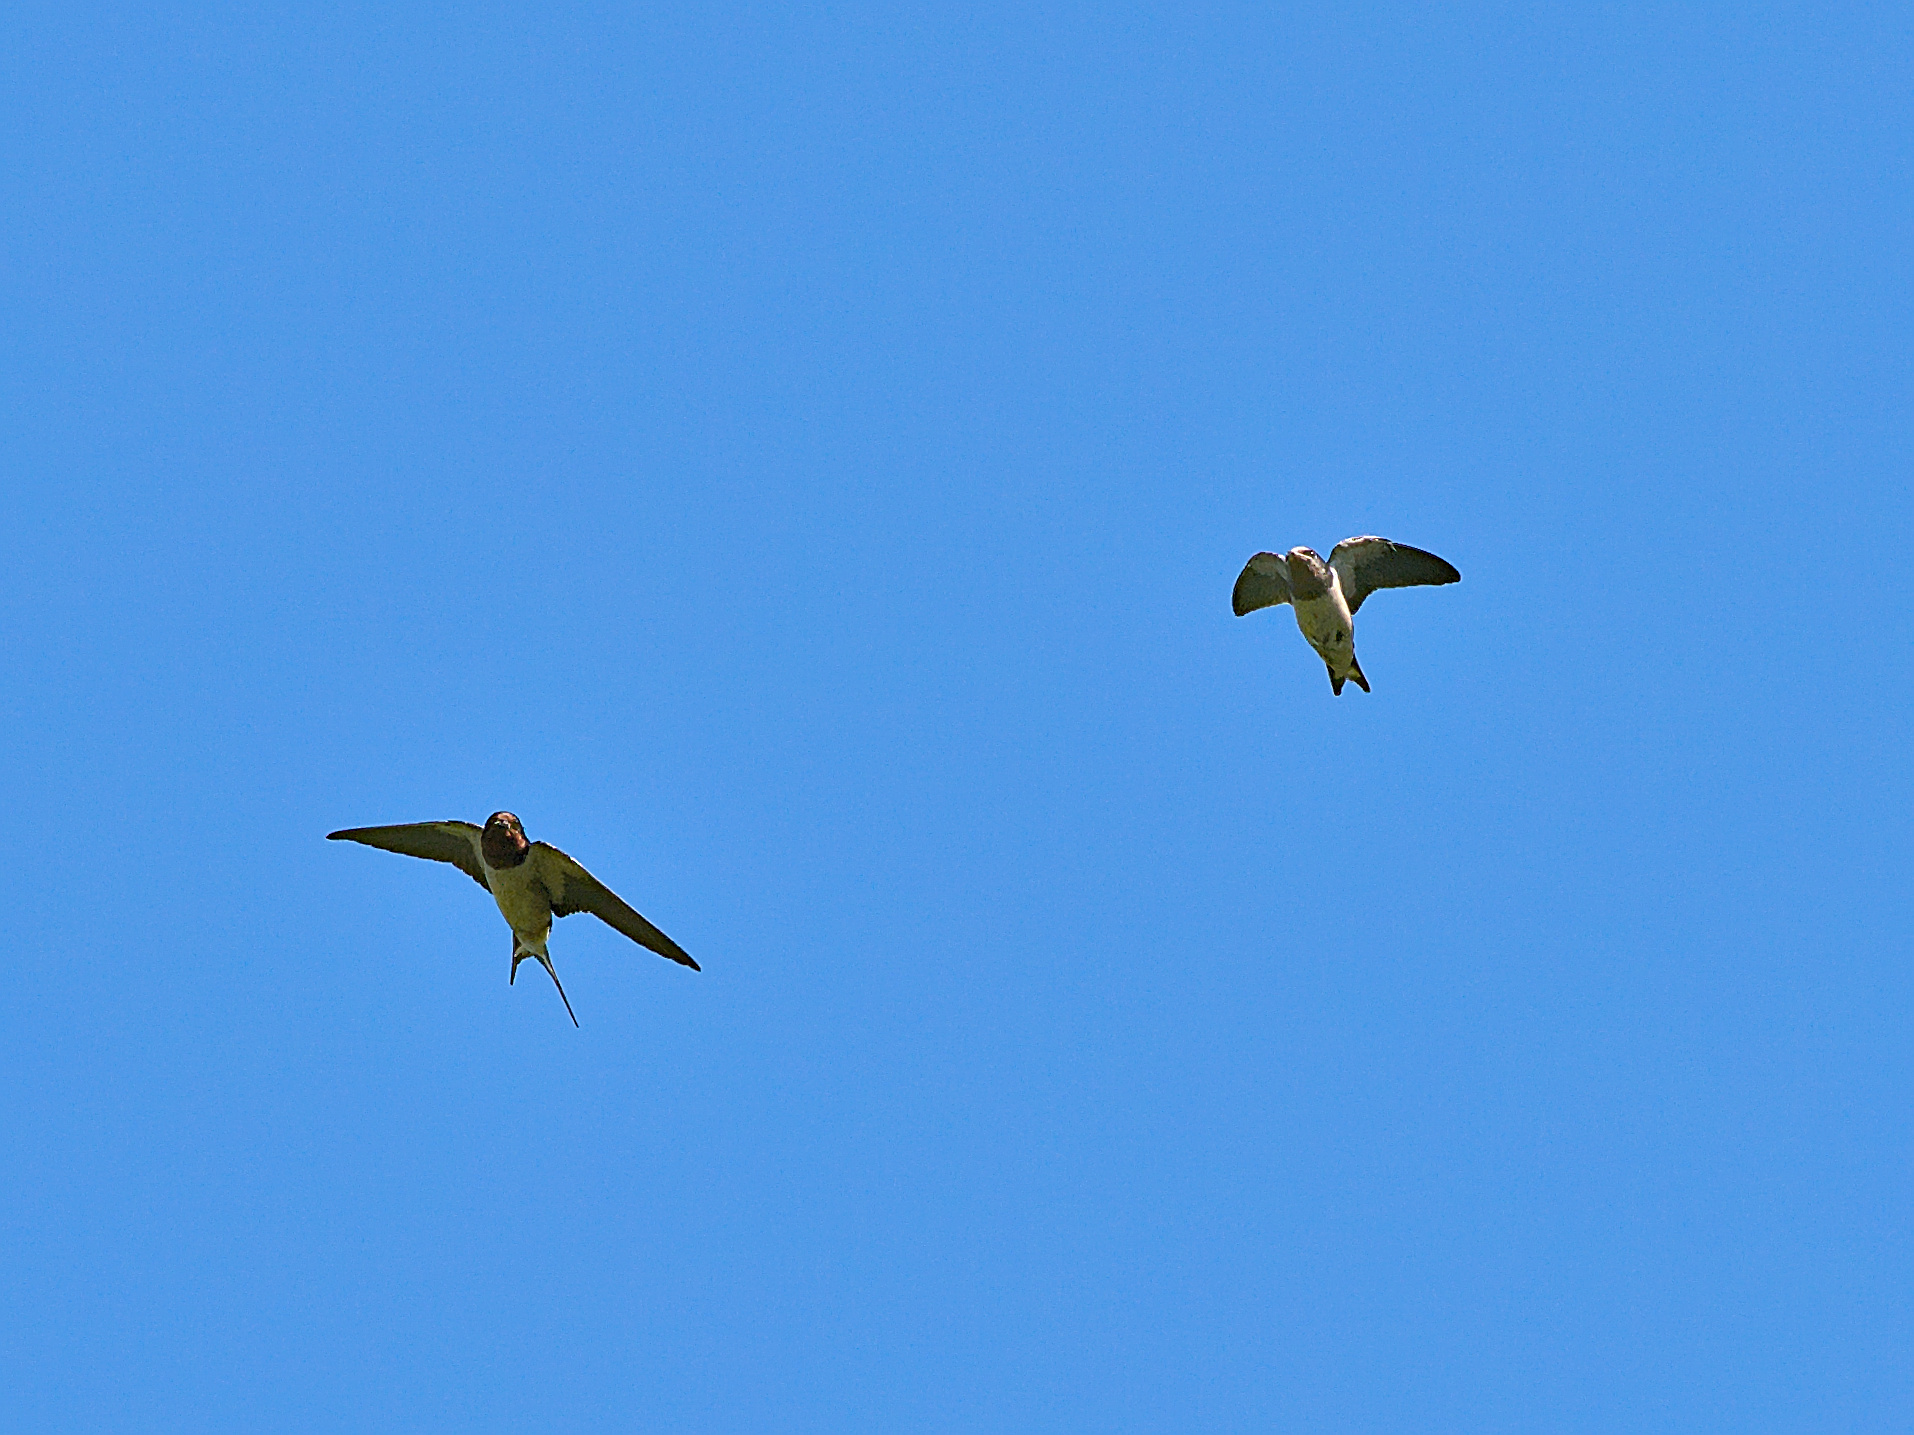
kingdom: Animalia
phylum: Chordata
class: Aves
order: Passeriformes
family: Hirundinidae
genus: Hirundo
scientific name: Hirundo rustica
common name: Barn swallow
